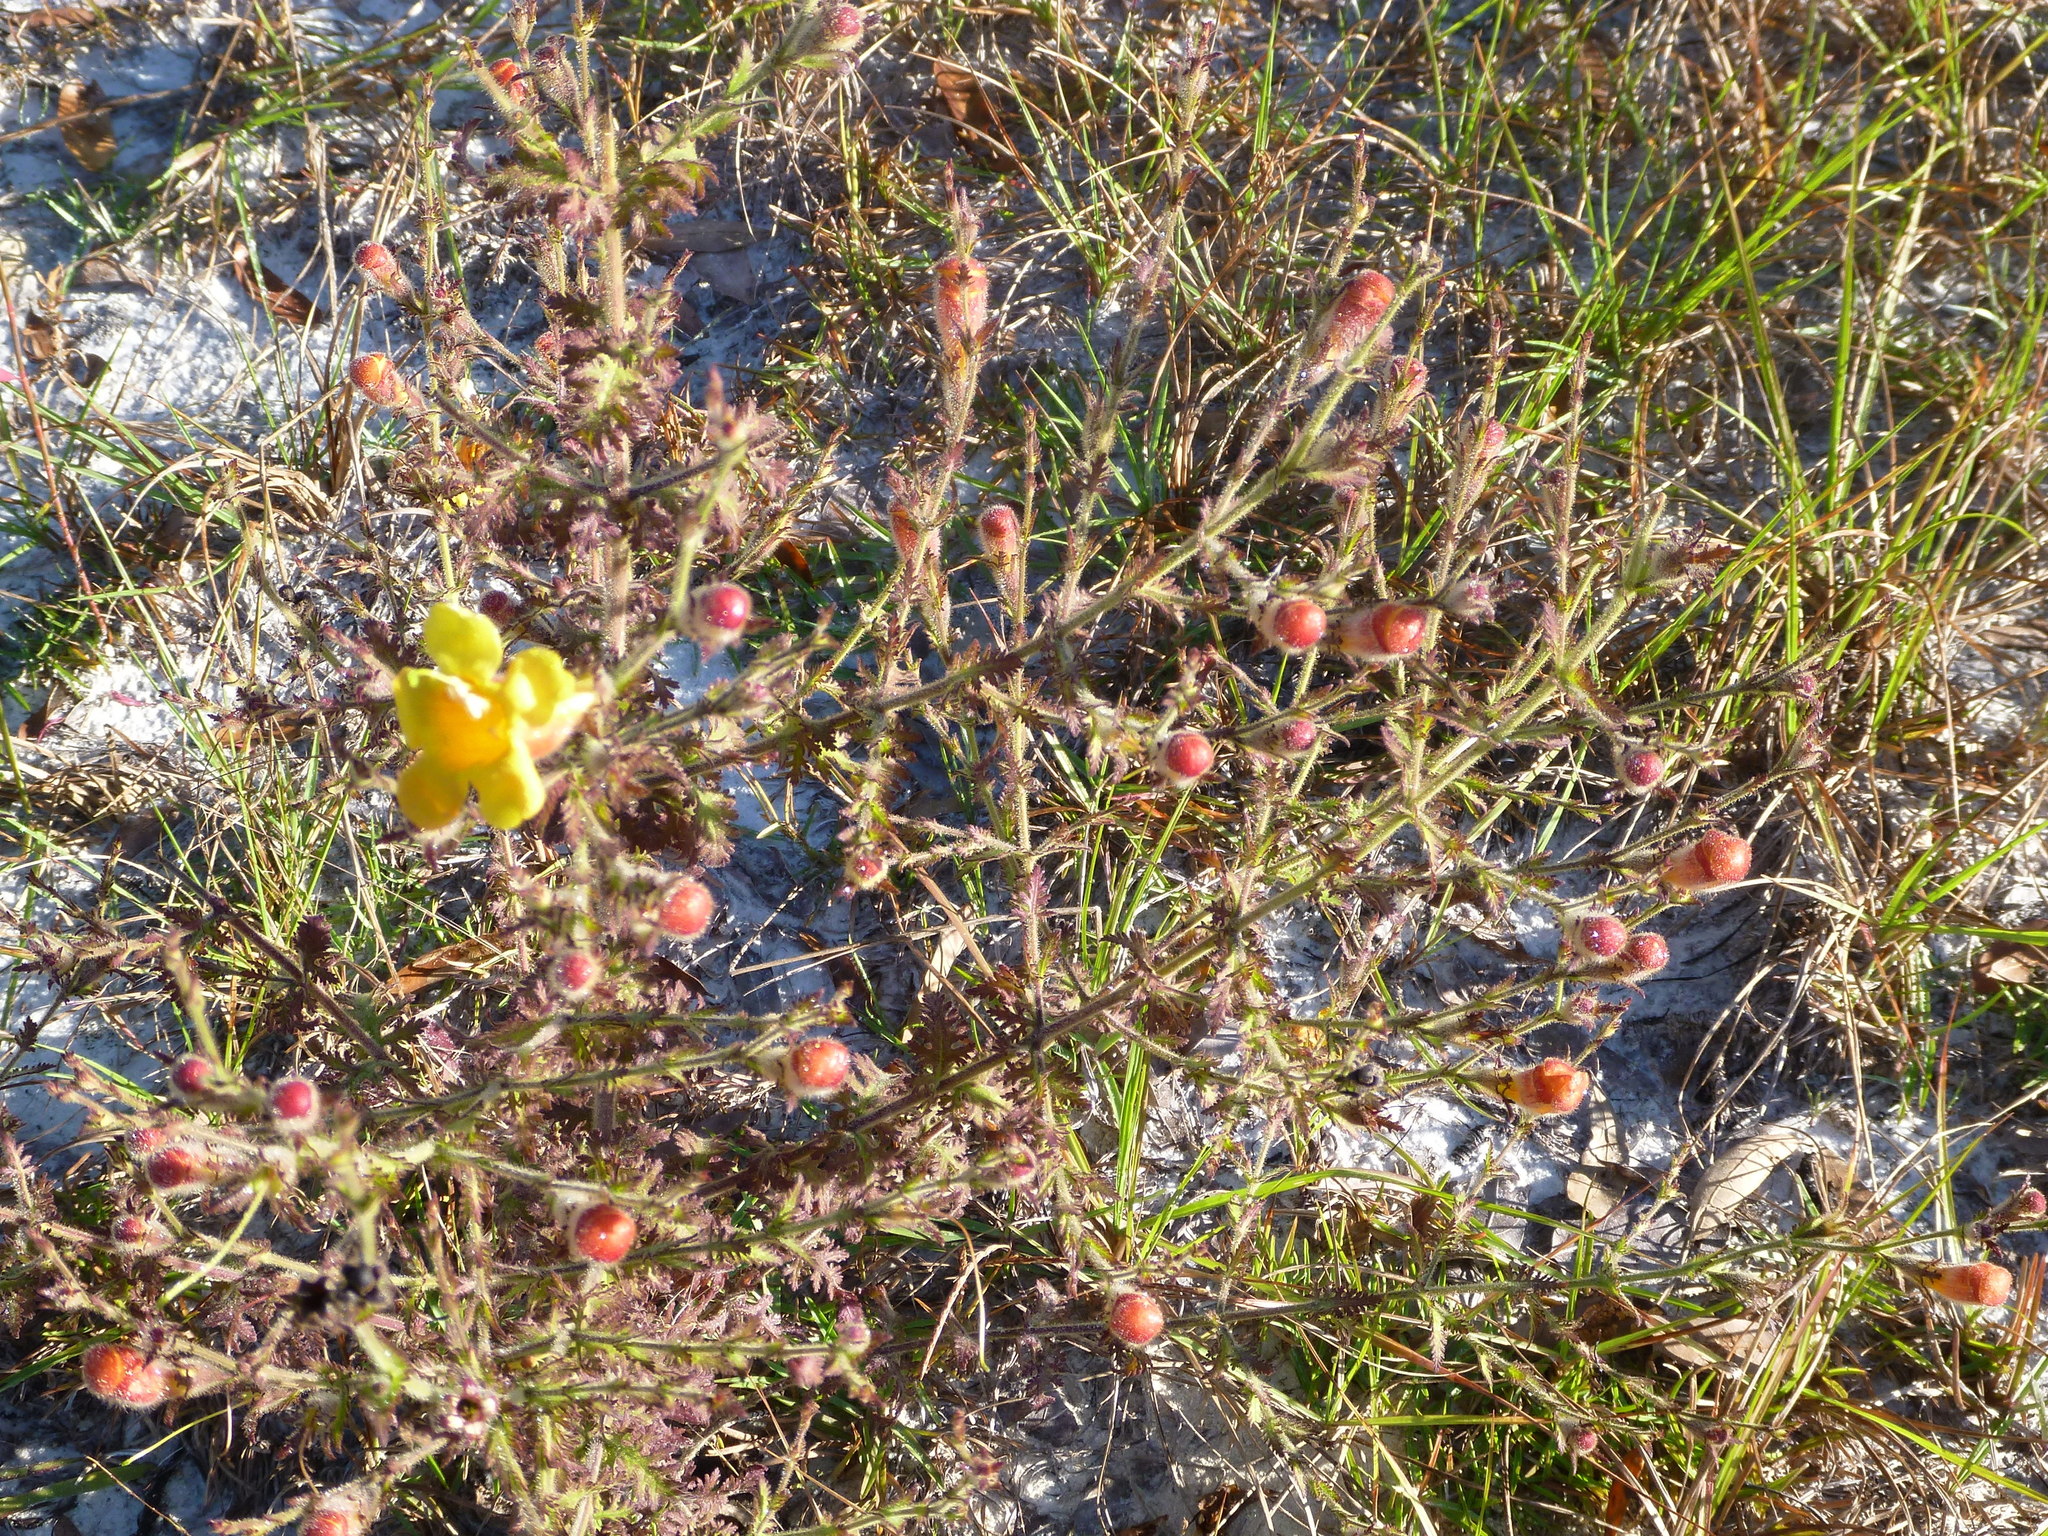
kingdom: Plantae
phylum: Tracheophyta
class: Magnoliopsida
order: Lamiales
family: Orobanchaceae
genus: Aureolaria
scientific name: Aureolaria pectinata
